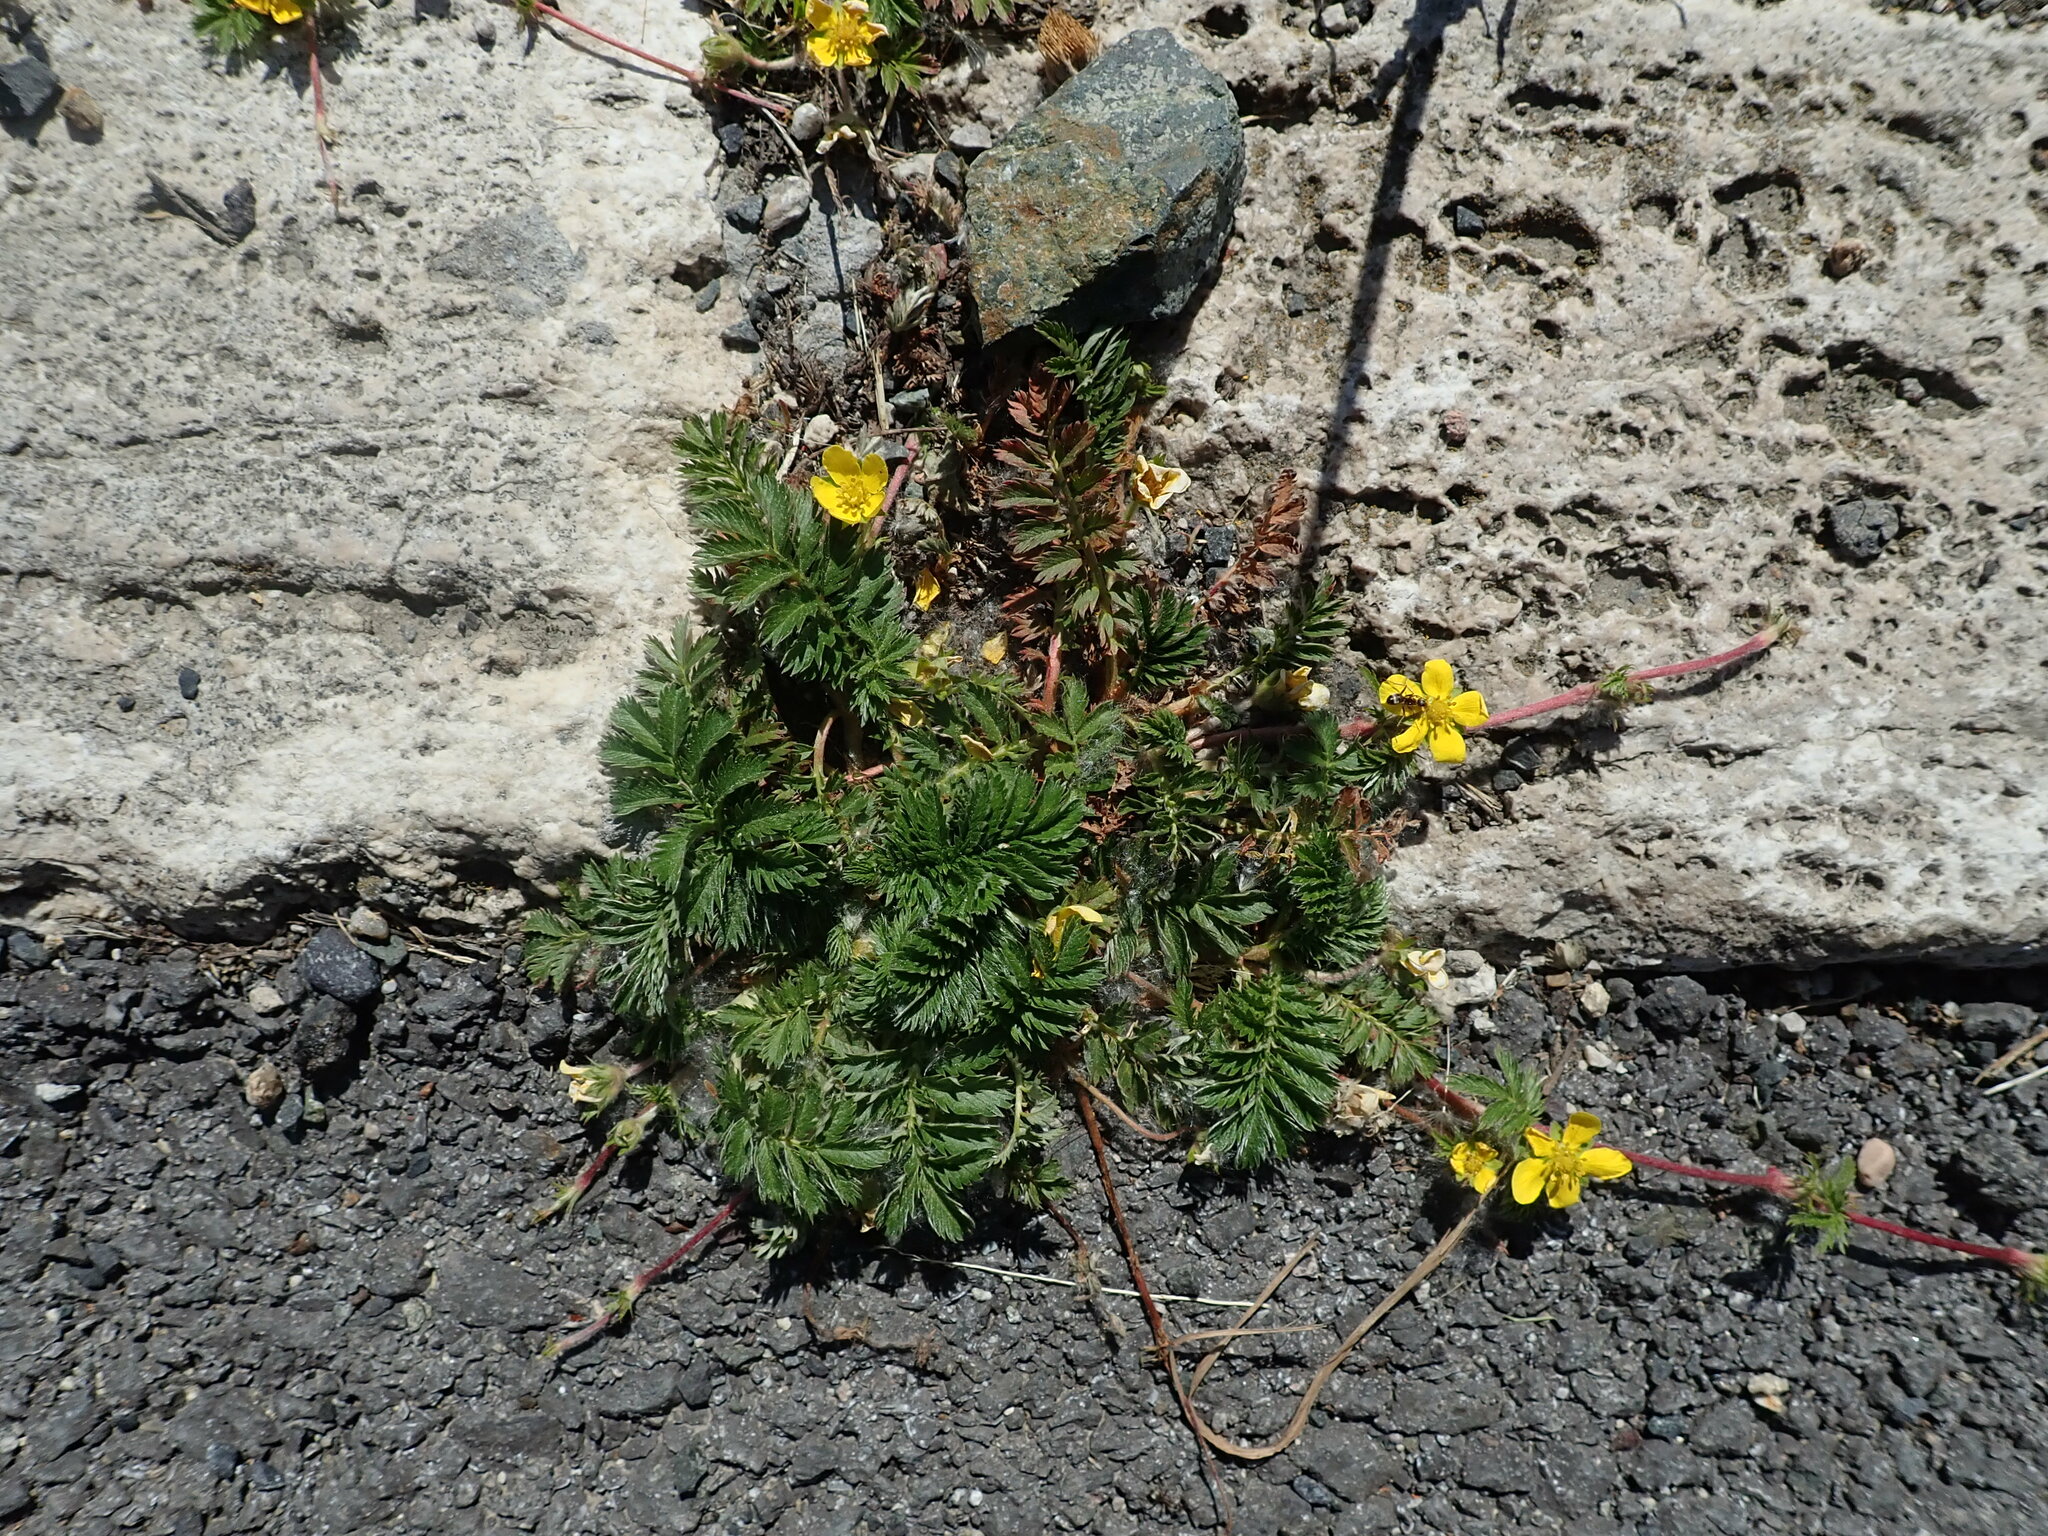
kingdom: Plantae
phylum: Tracheophyta
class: Magnoliopsida
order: Rosales
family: Rosaceae
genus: Argentina
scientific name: Argentina anserina
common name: Common silverweed
